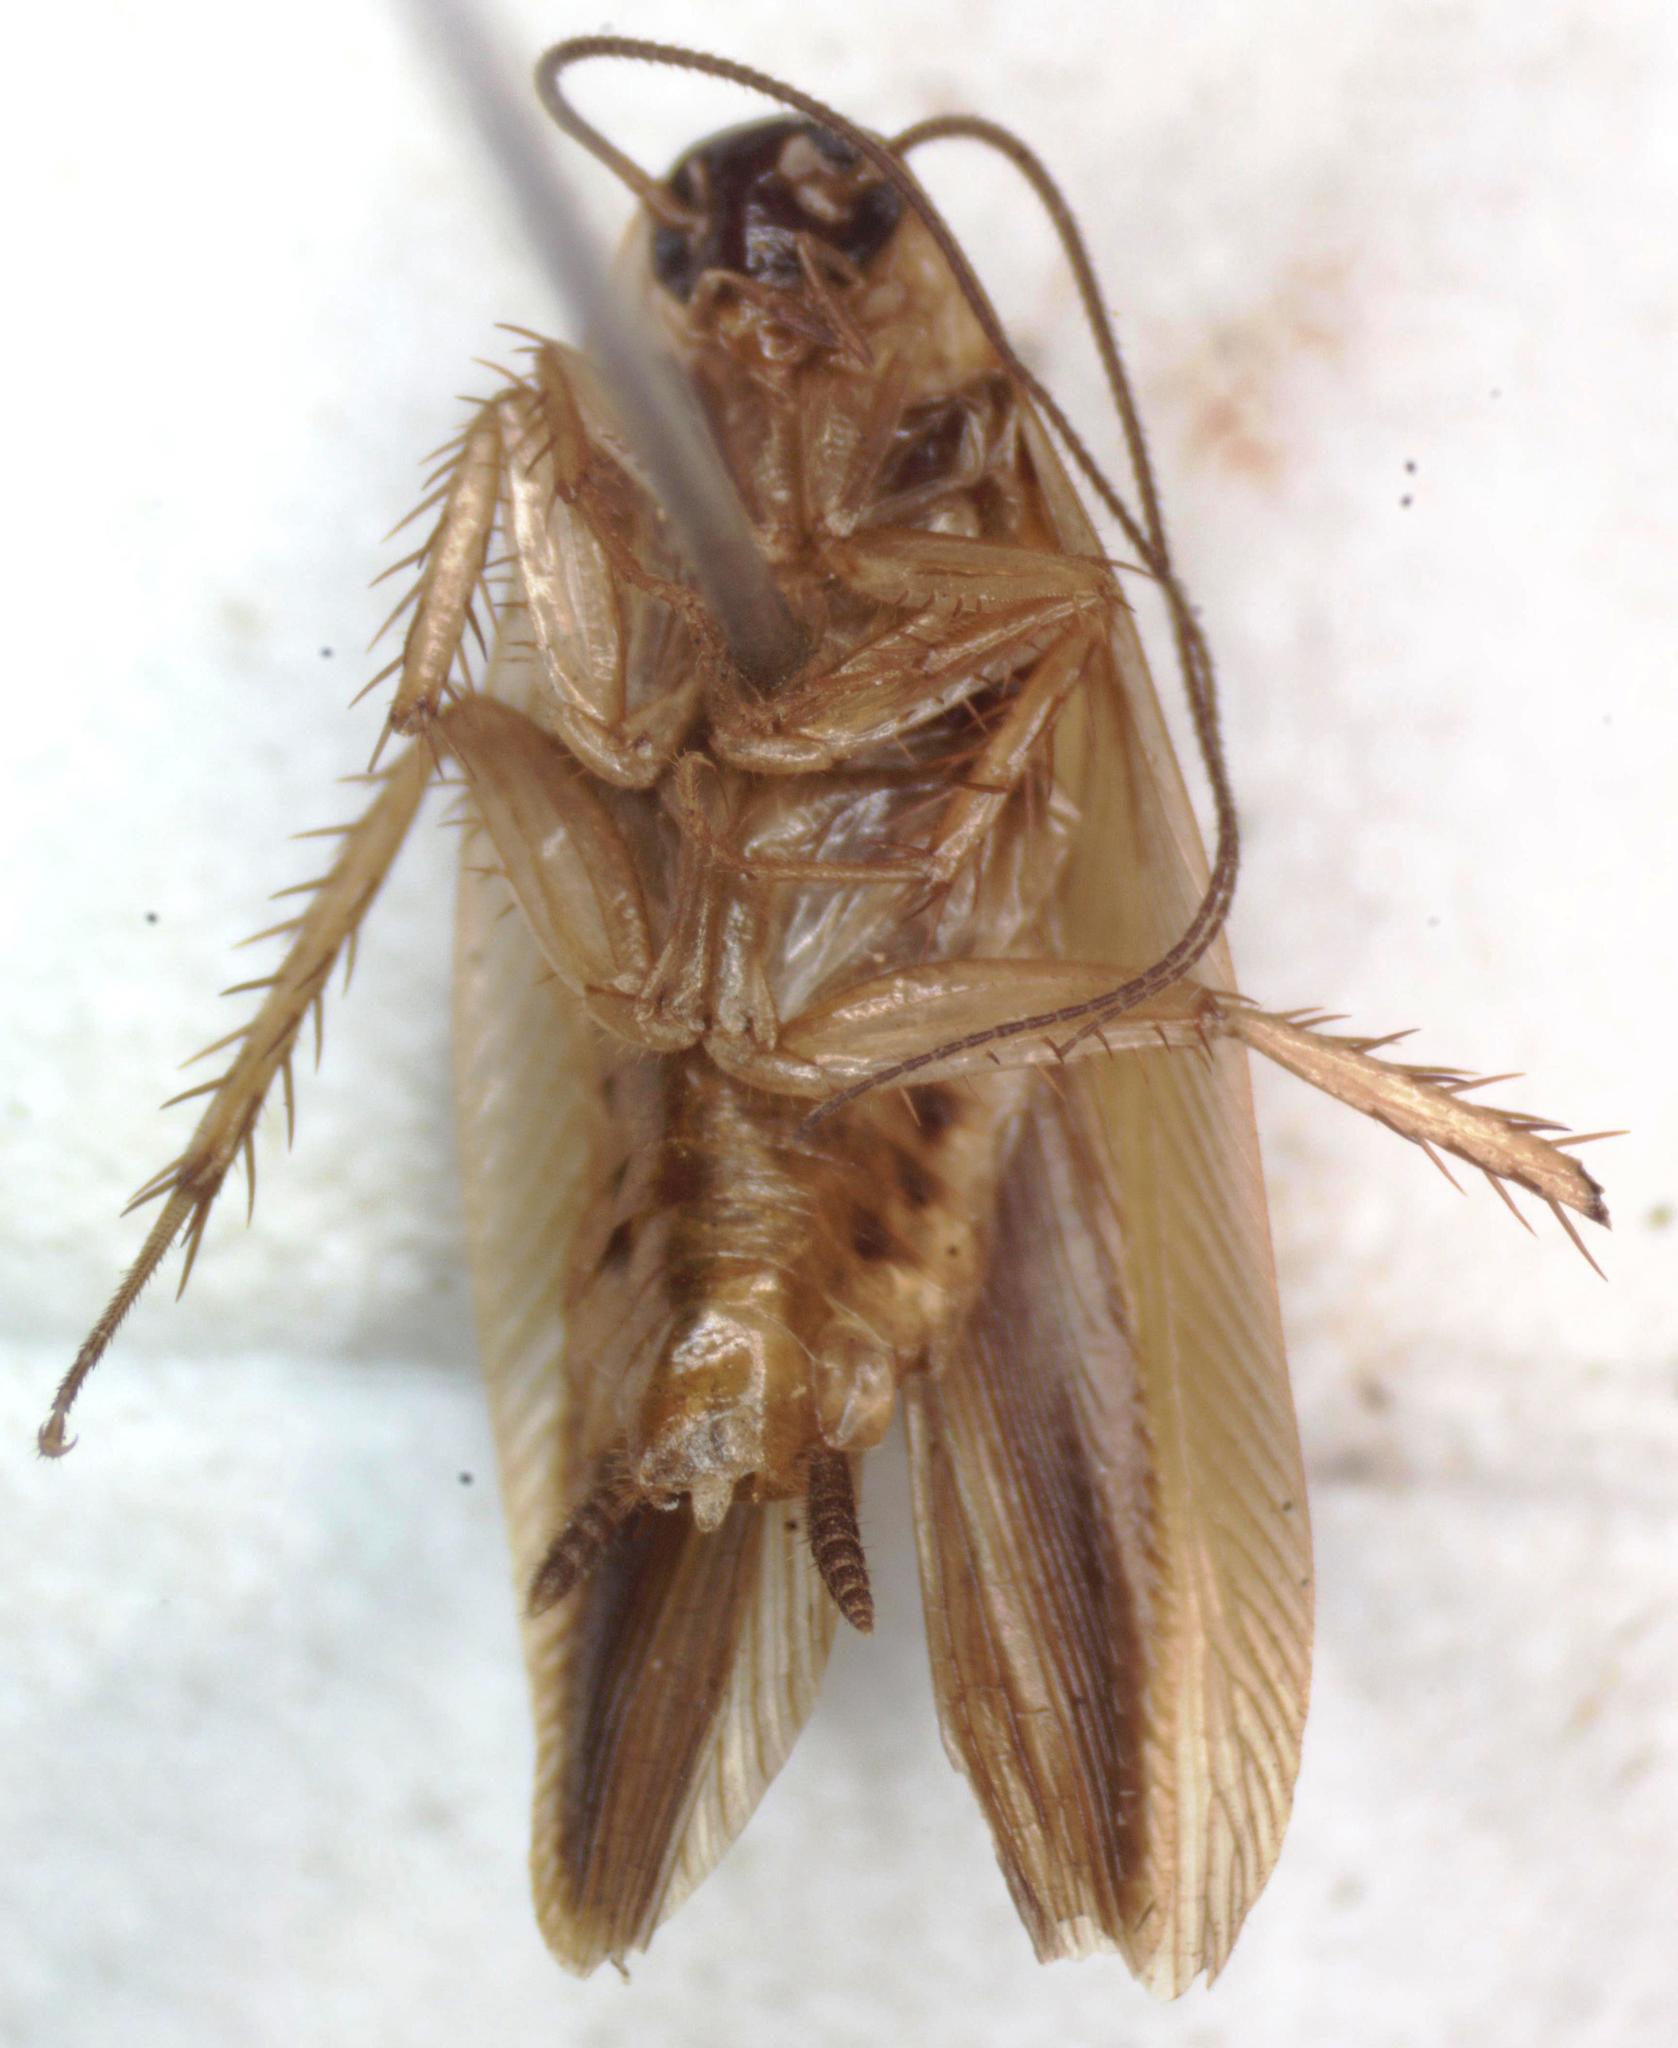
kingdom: Animalia
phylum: Arthropoda
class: Insecta
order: Blattodea
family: Ectobiidae
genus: Chromatonotus
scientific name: Chromatonotus quarequae
